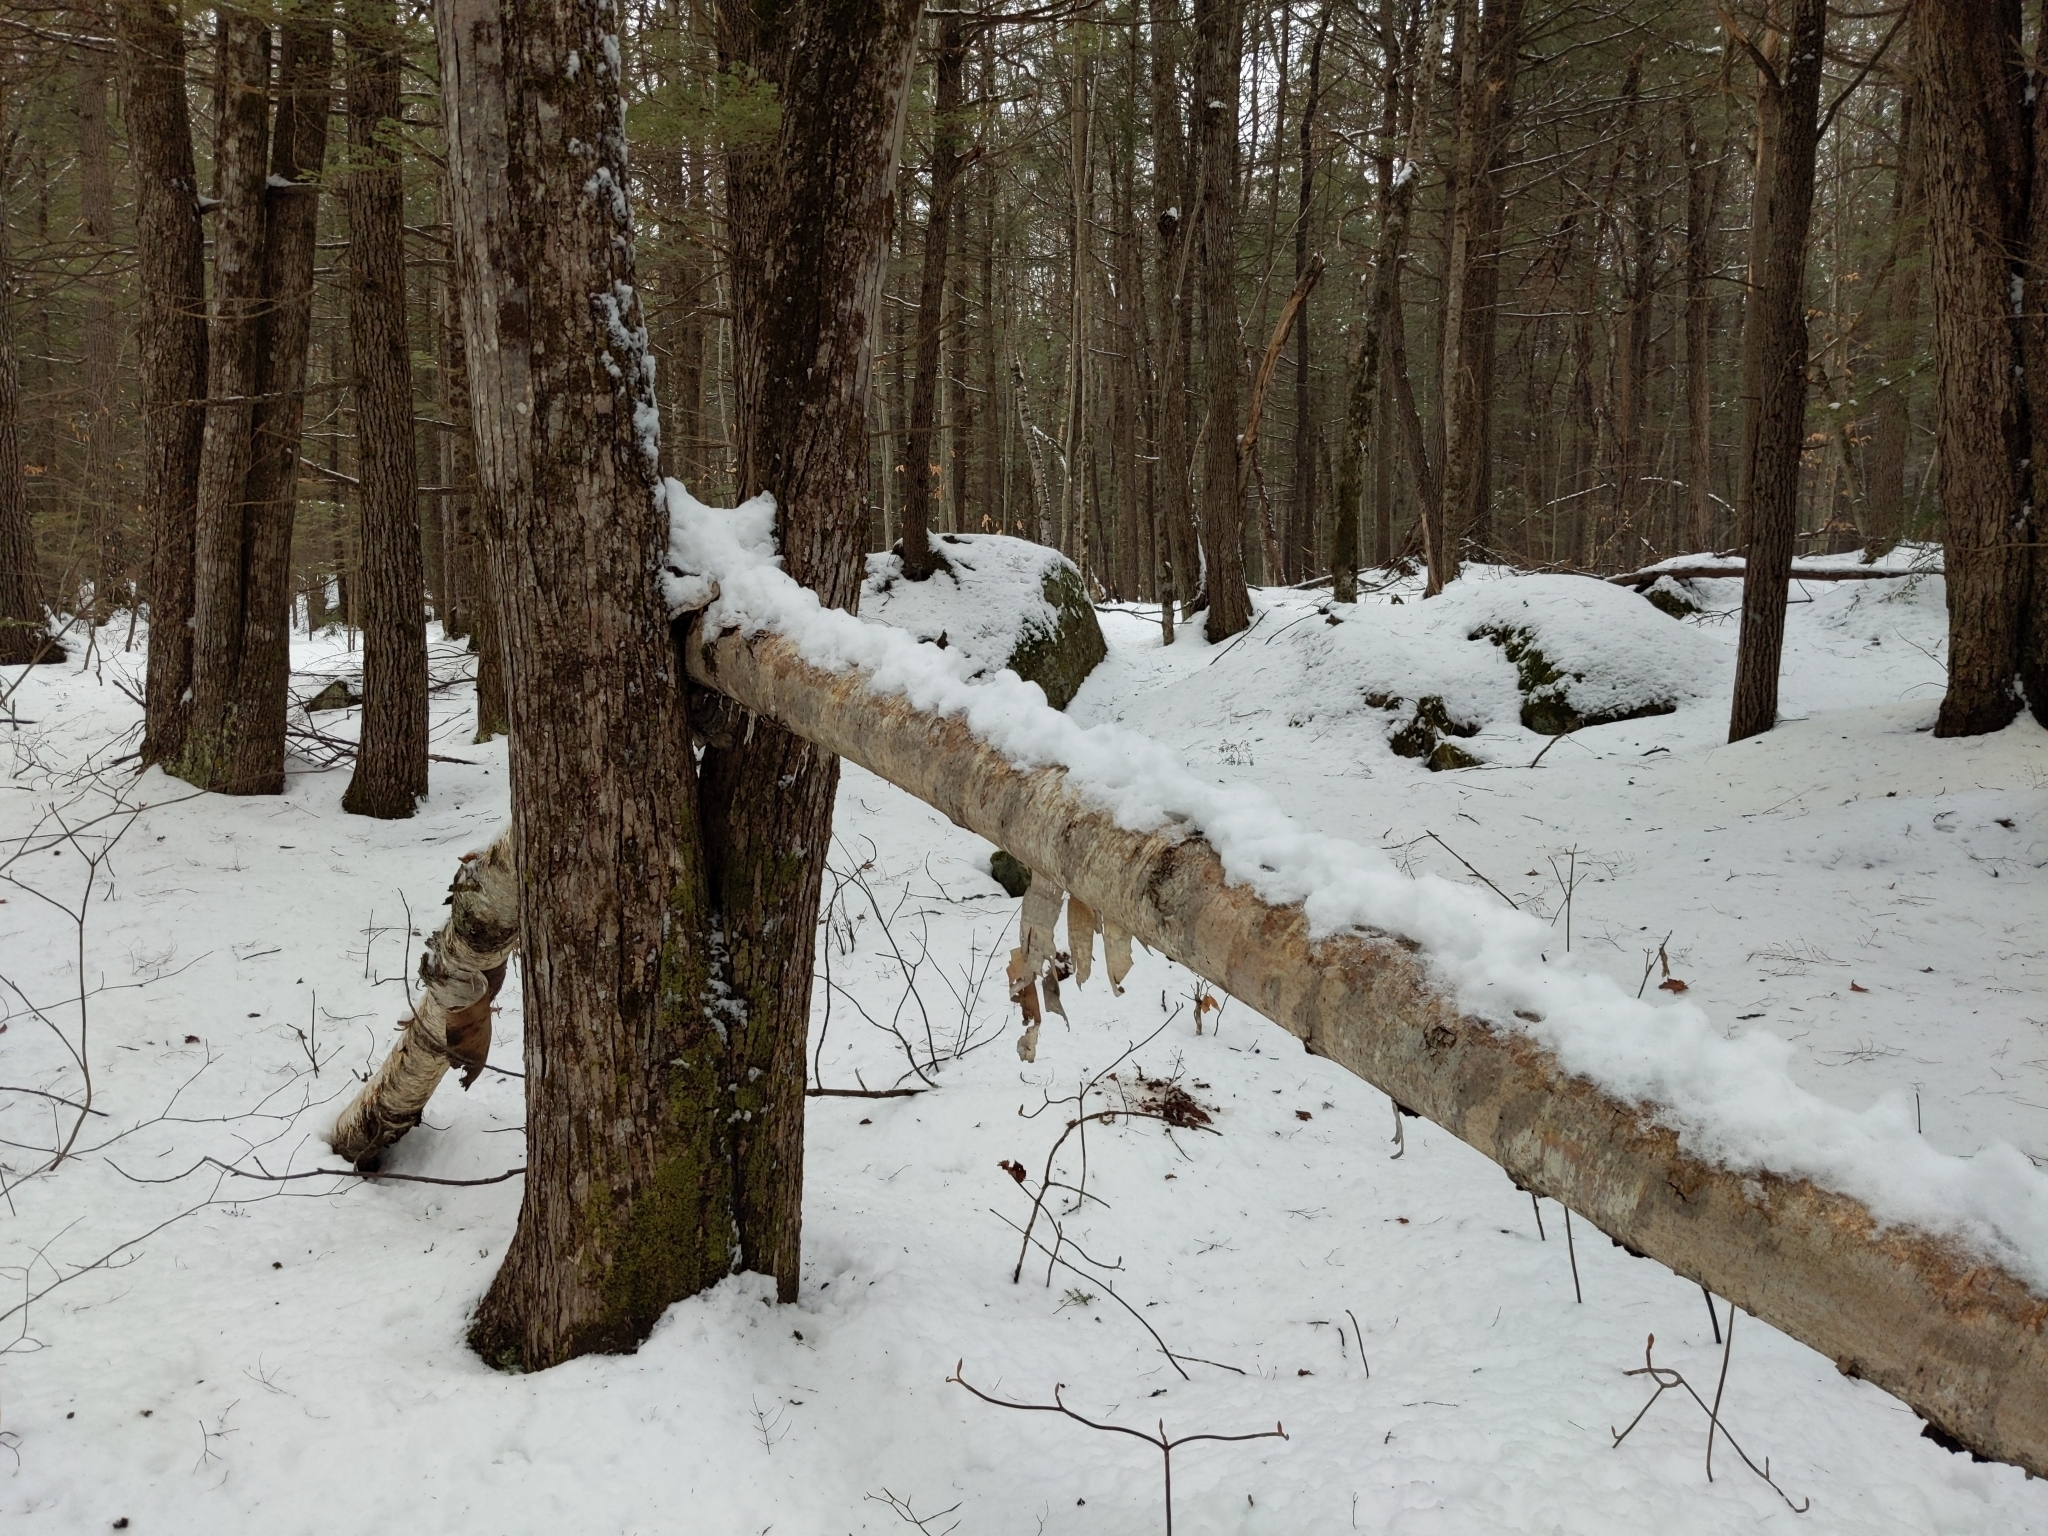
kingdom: Plantae
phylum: Tracheophyta
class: Magnoliopsida
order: Fagales
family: Betulaceae
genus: Betula
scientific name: Betula papyrifera
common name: Paper birch
